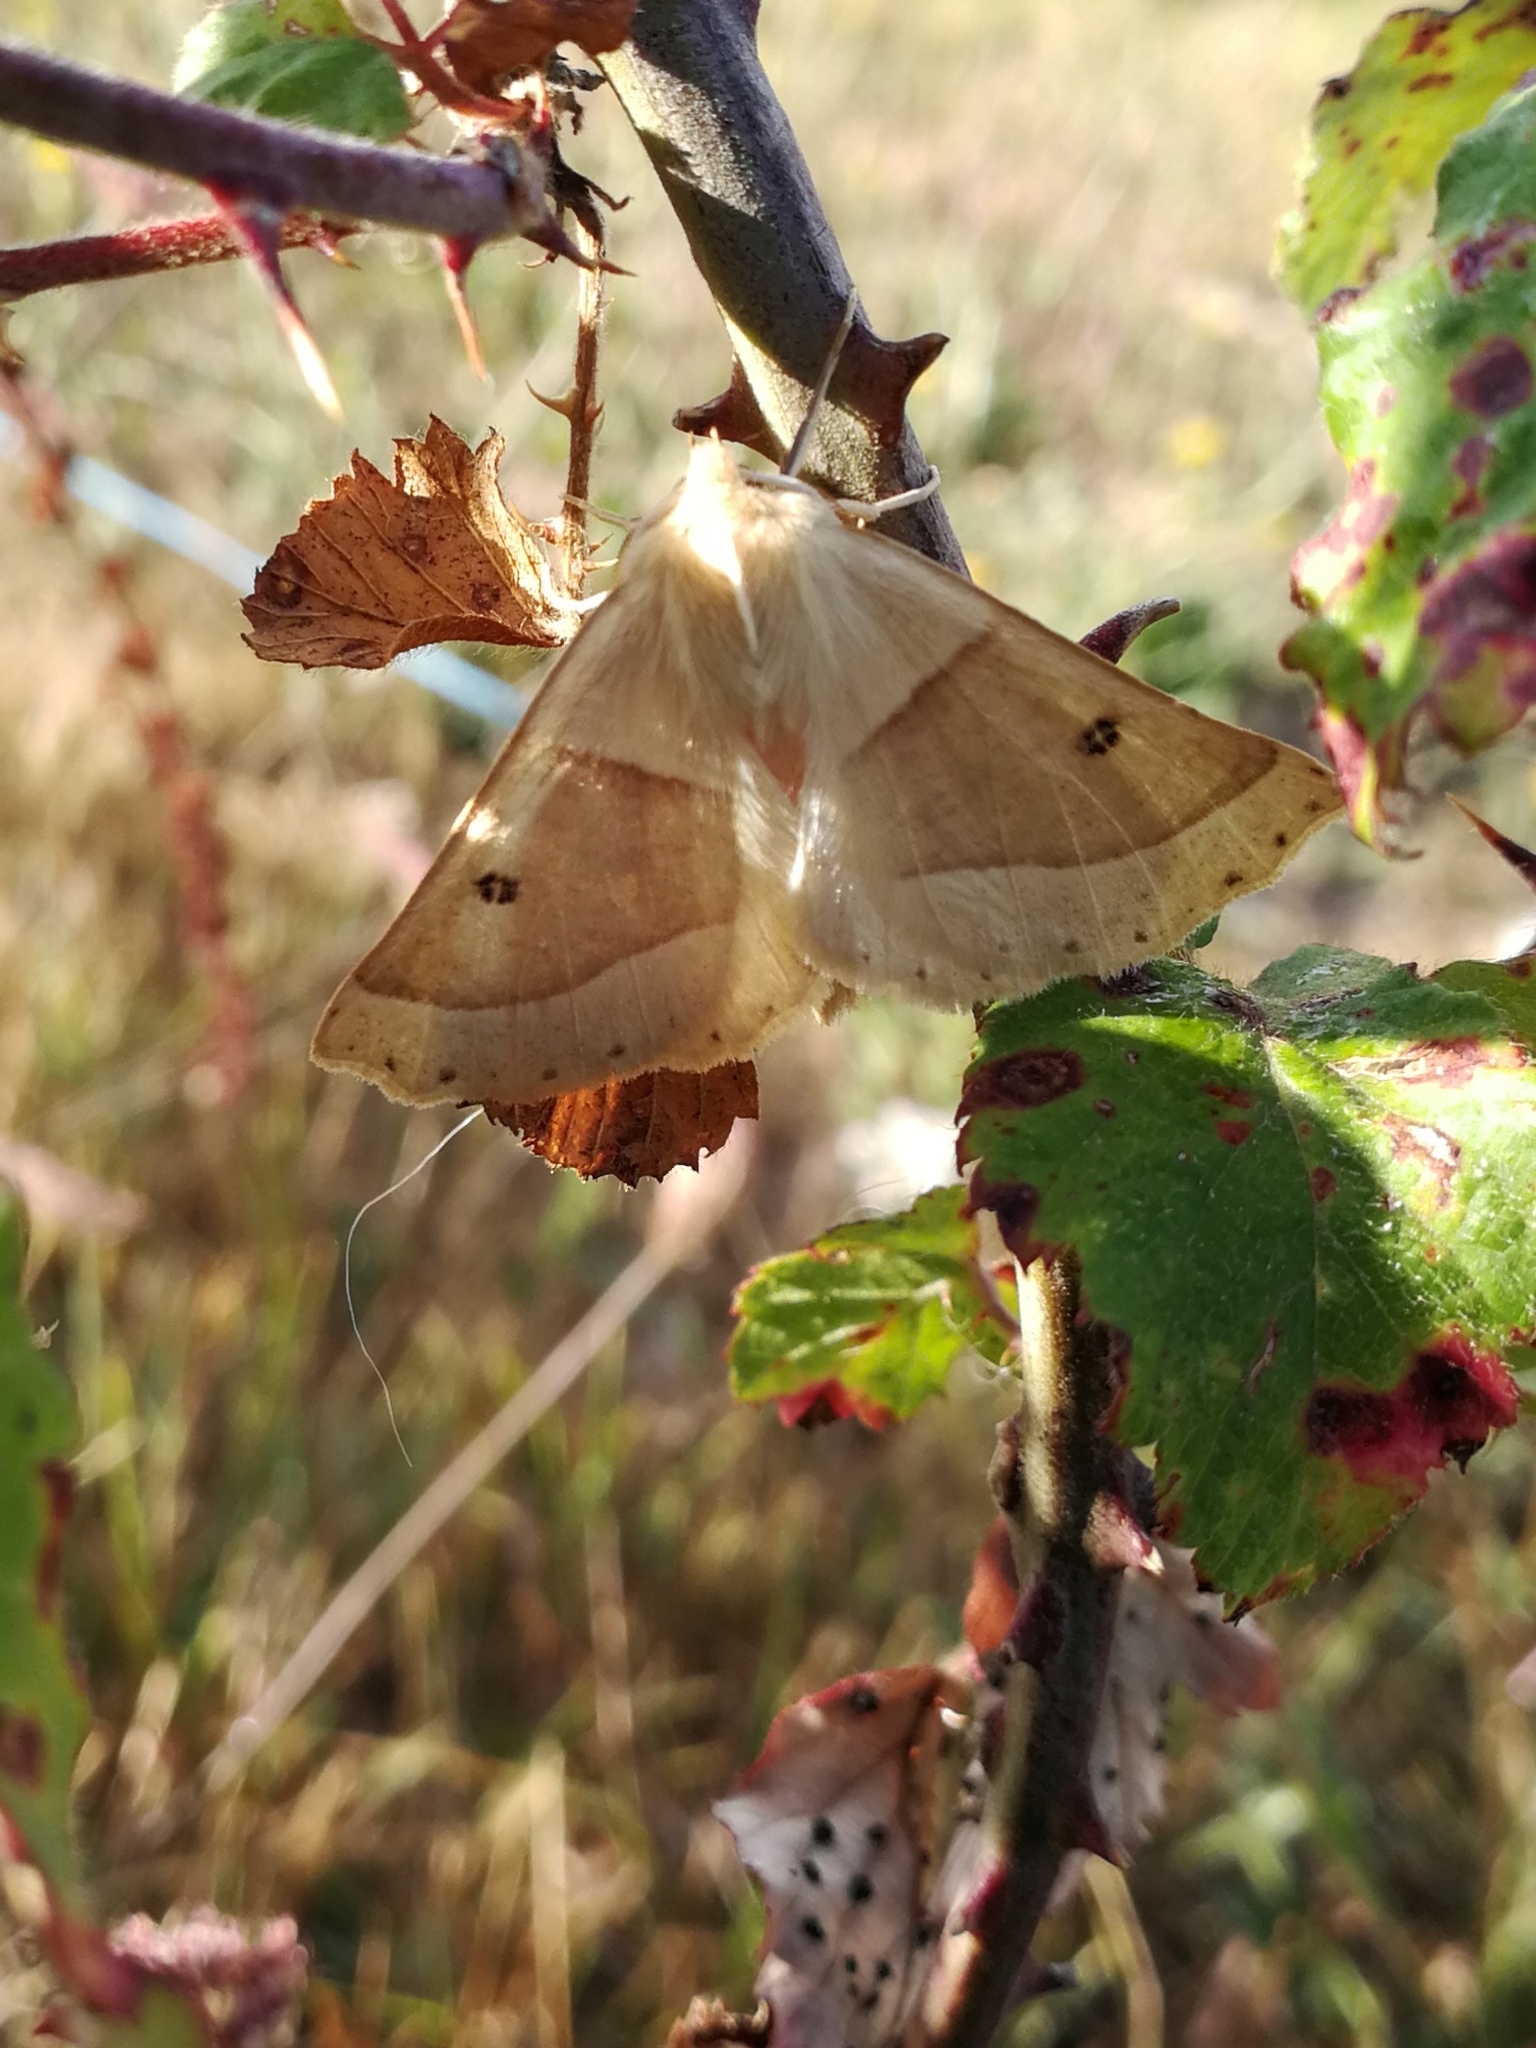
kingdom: Animalia
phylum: Arthropoda
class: Insecta
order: Lepidoptera
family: Geometridae
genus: Crocallis
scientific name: Crocallis elinguaria
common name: Scalloped oak
